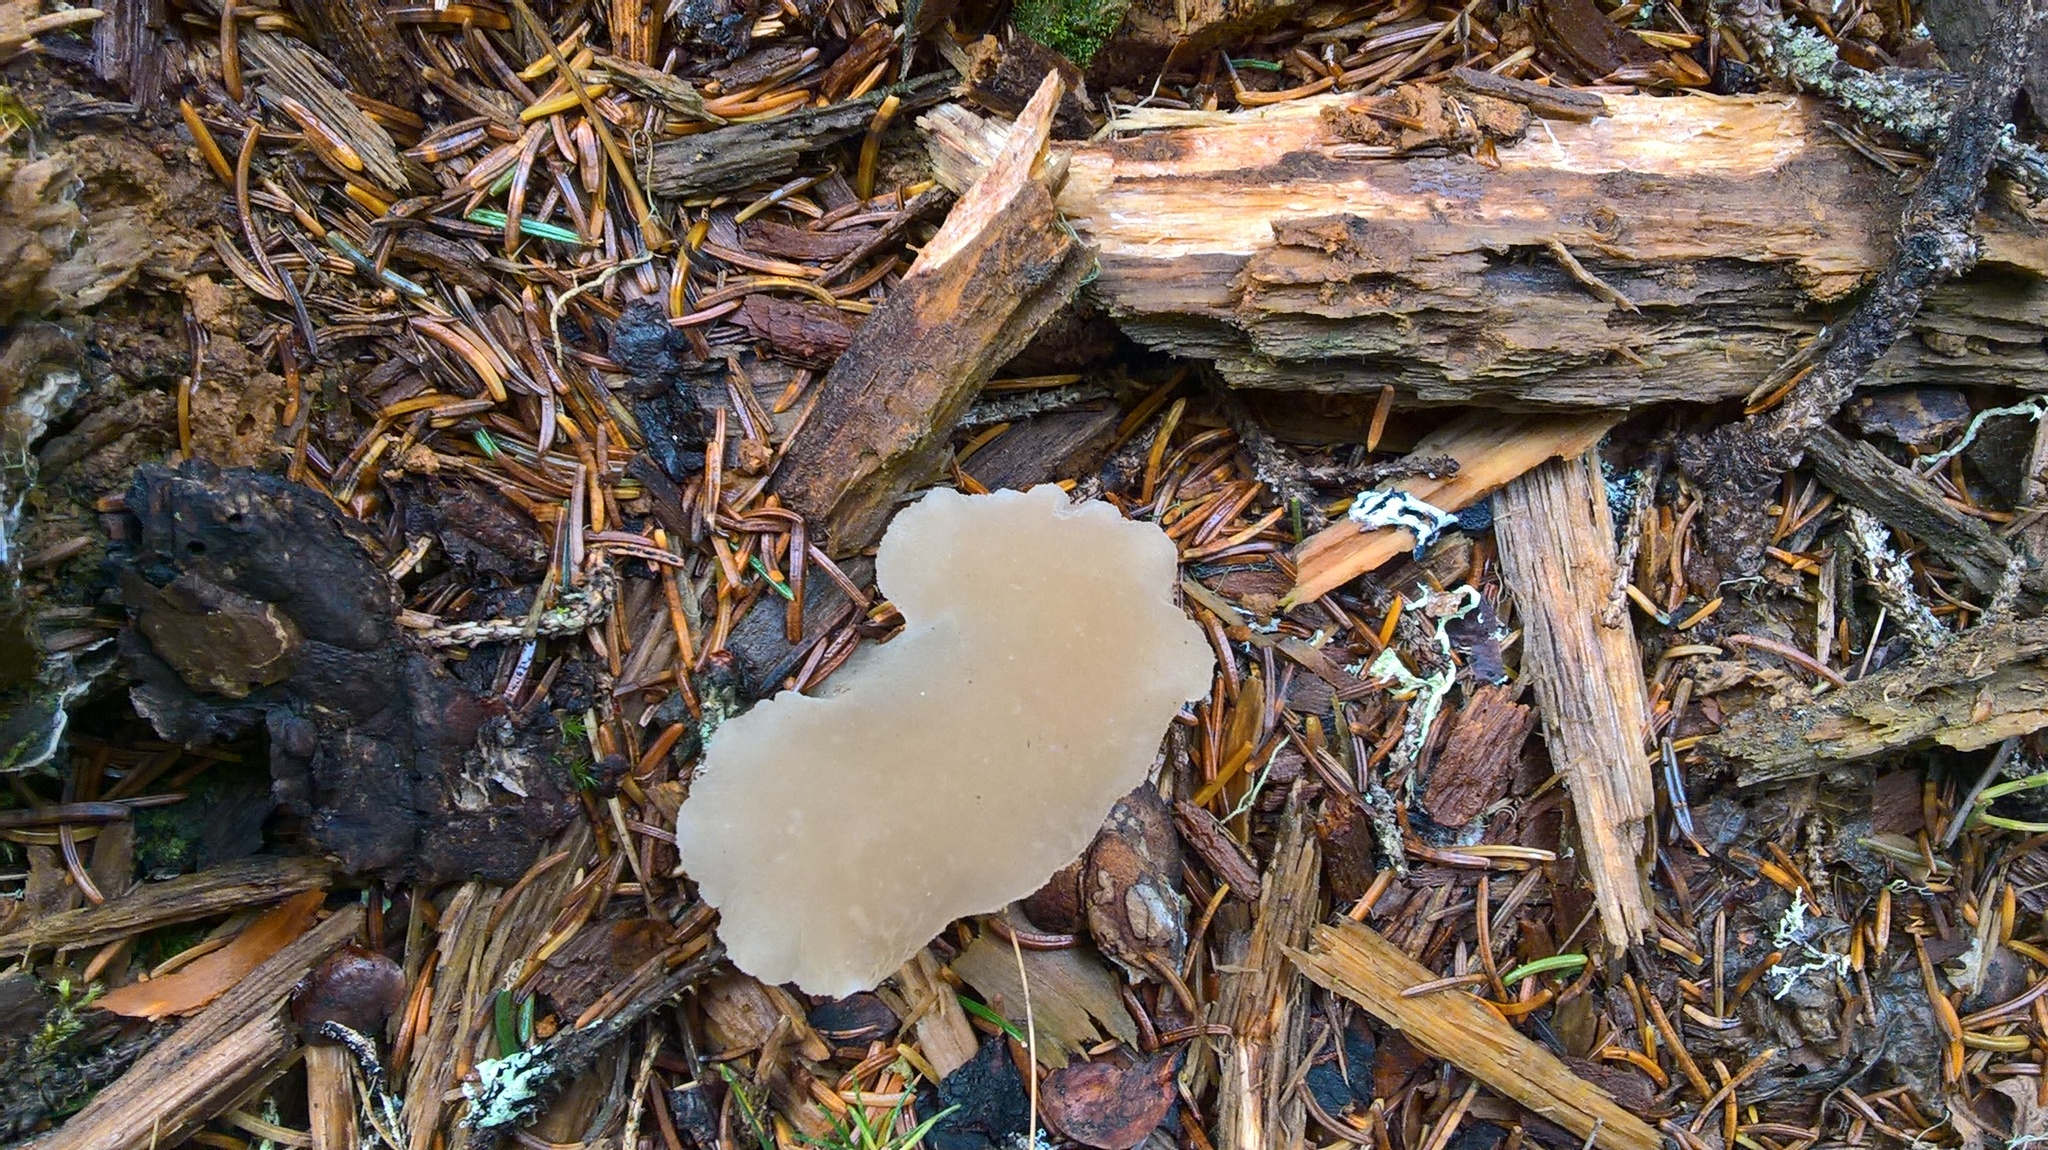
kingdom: Fungi
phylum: Basidiomycota
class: Agaricomycetes
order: Auriculariales
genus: Pseudohydnum
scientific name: Pseudohydnum gelatinosum
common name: Jelly tongue
